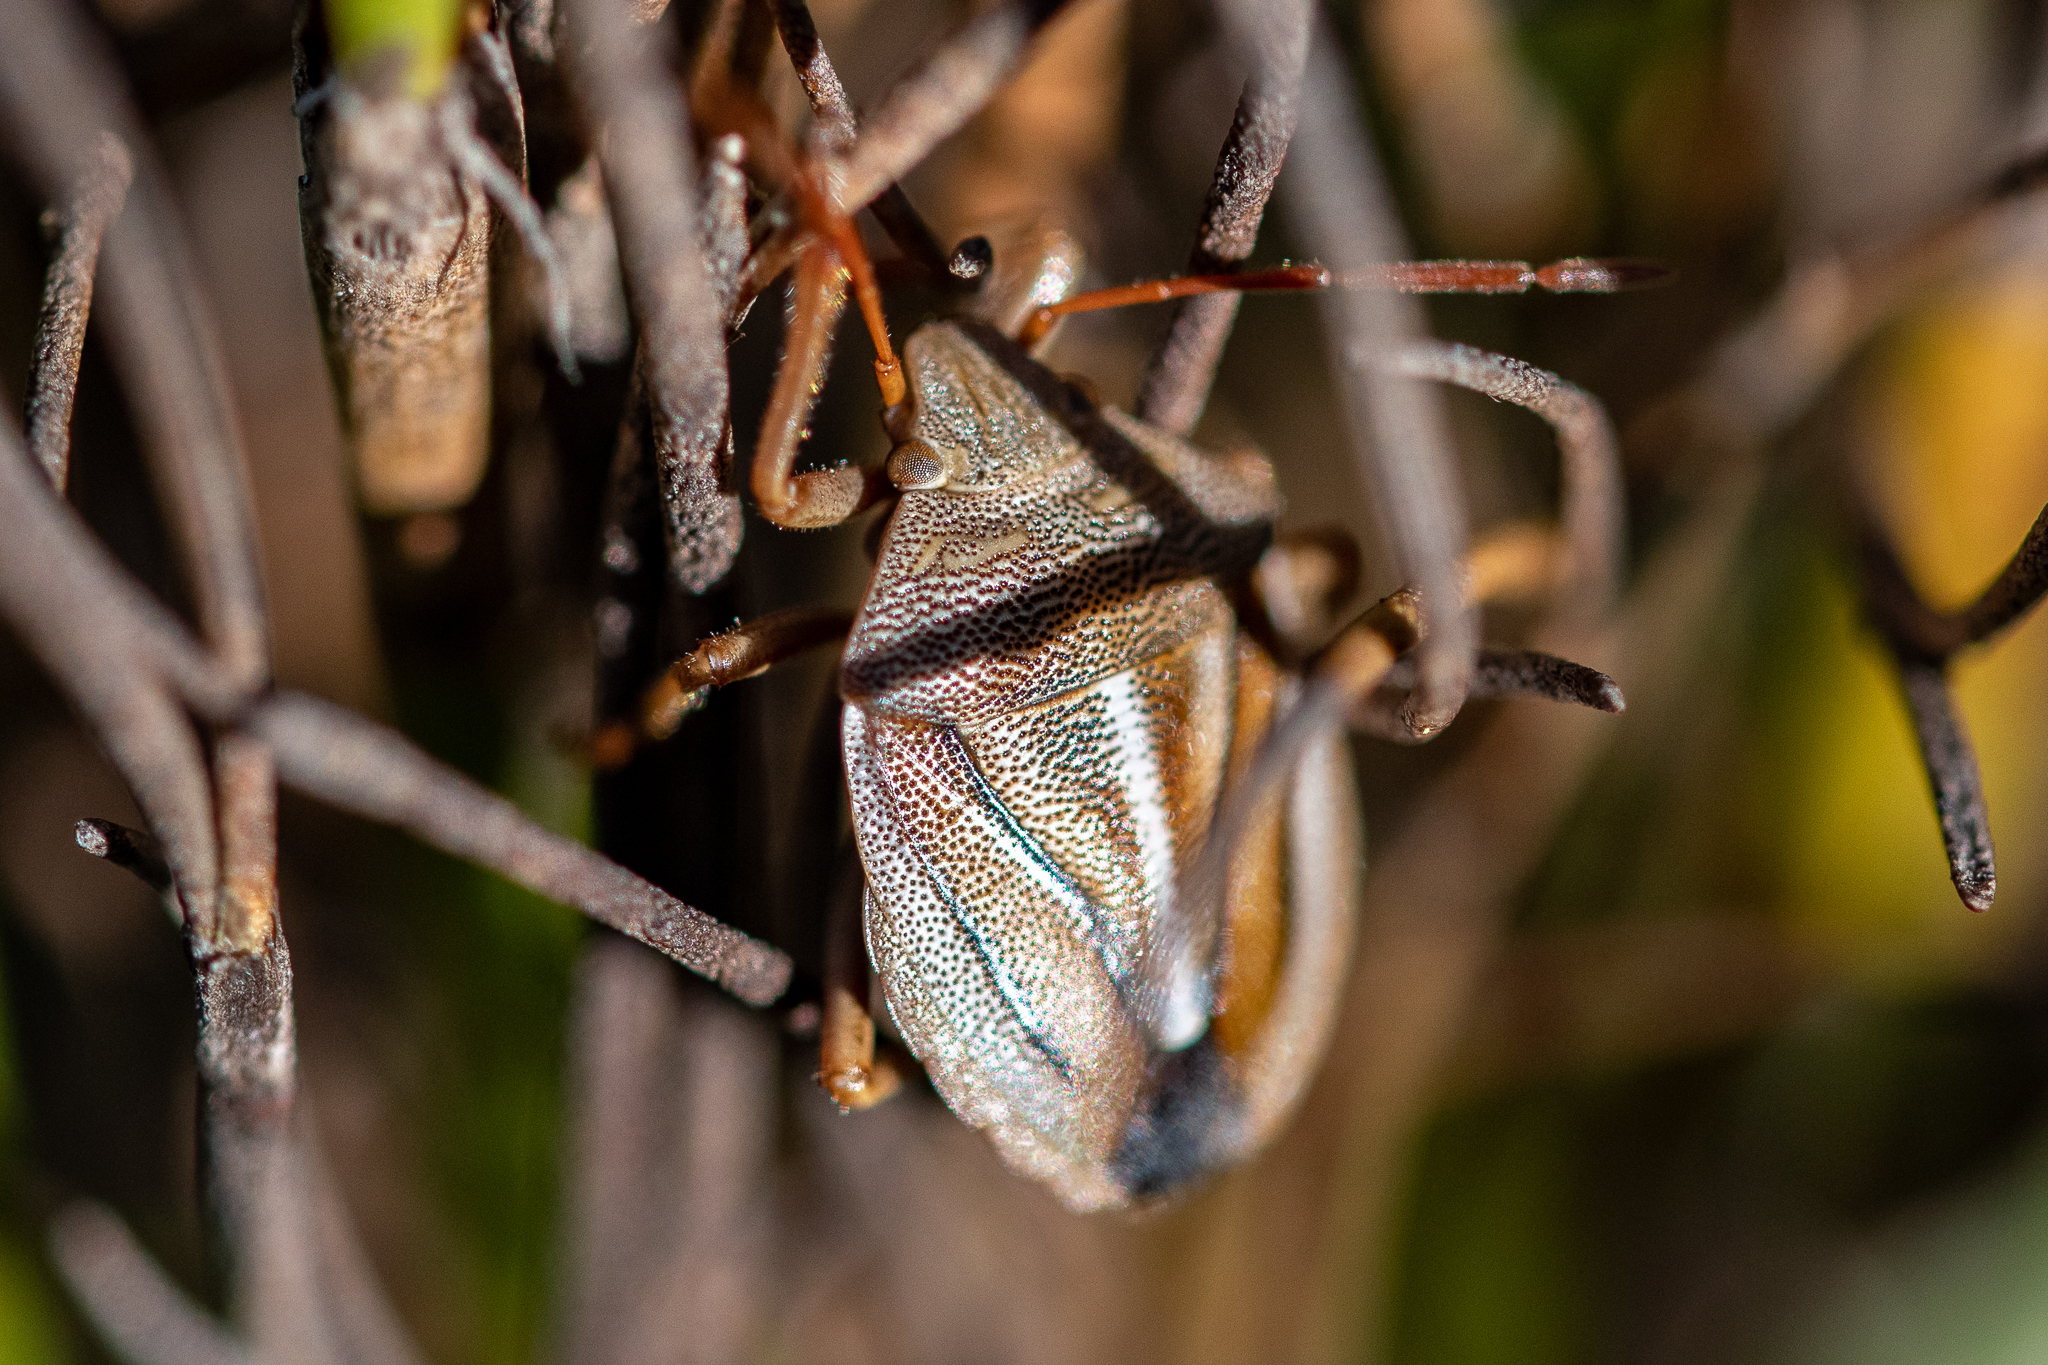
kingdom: Animalia
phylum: Arthropoda
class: Insecta
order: Hemiptera
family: Pentatomidae
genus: Theloris
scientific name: Theloris costata
